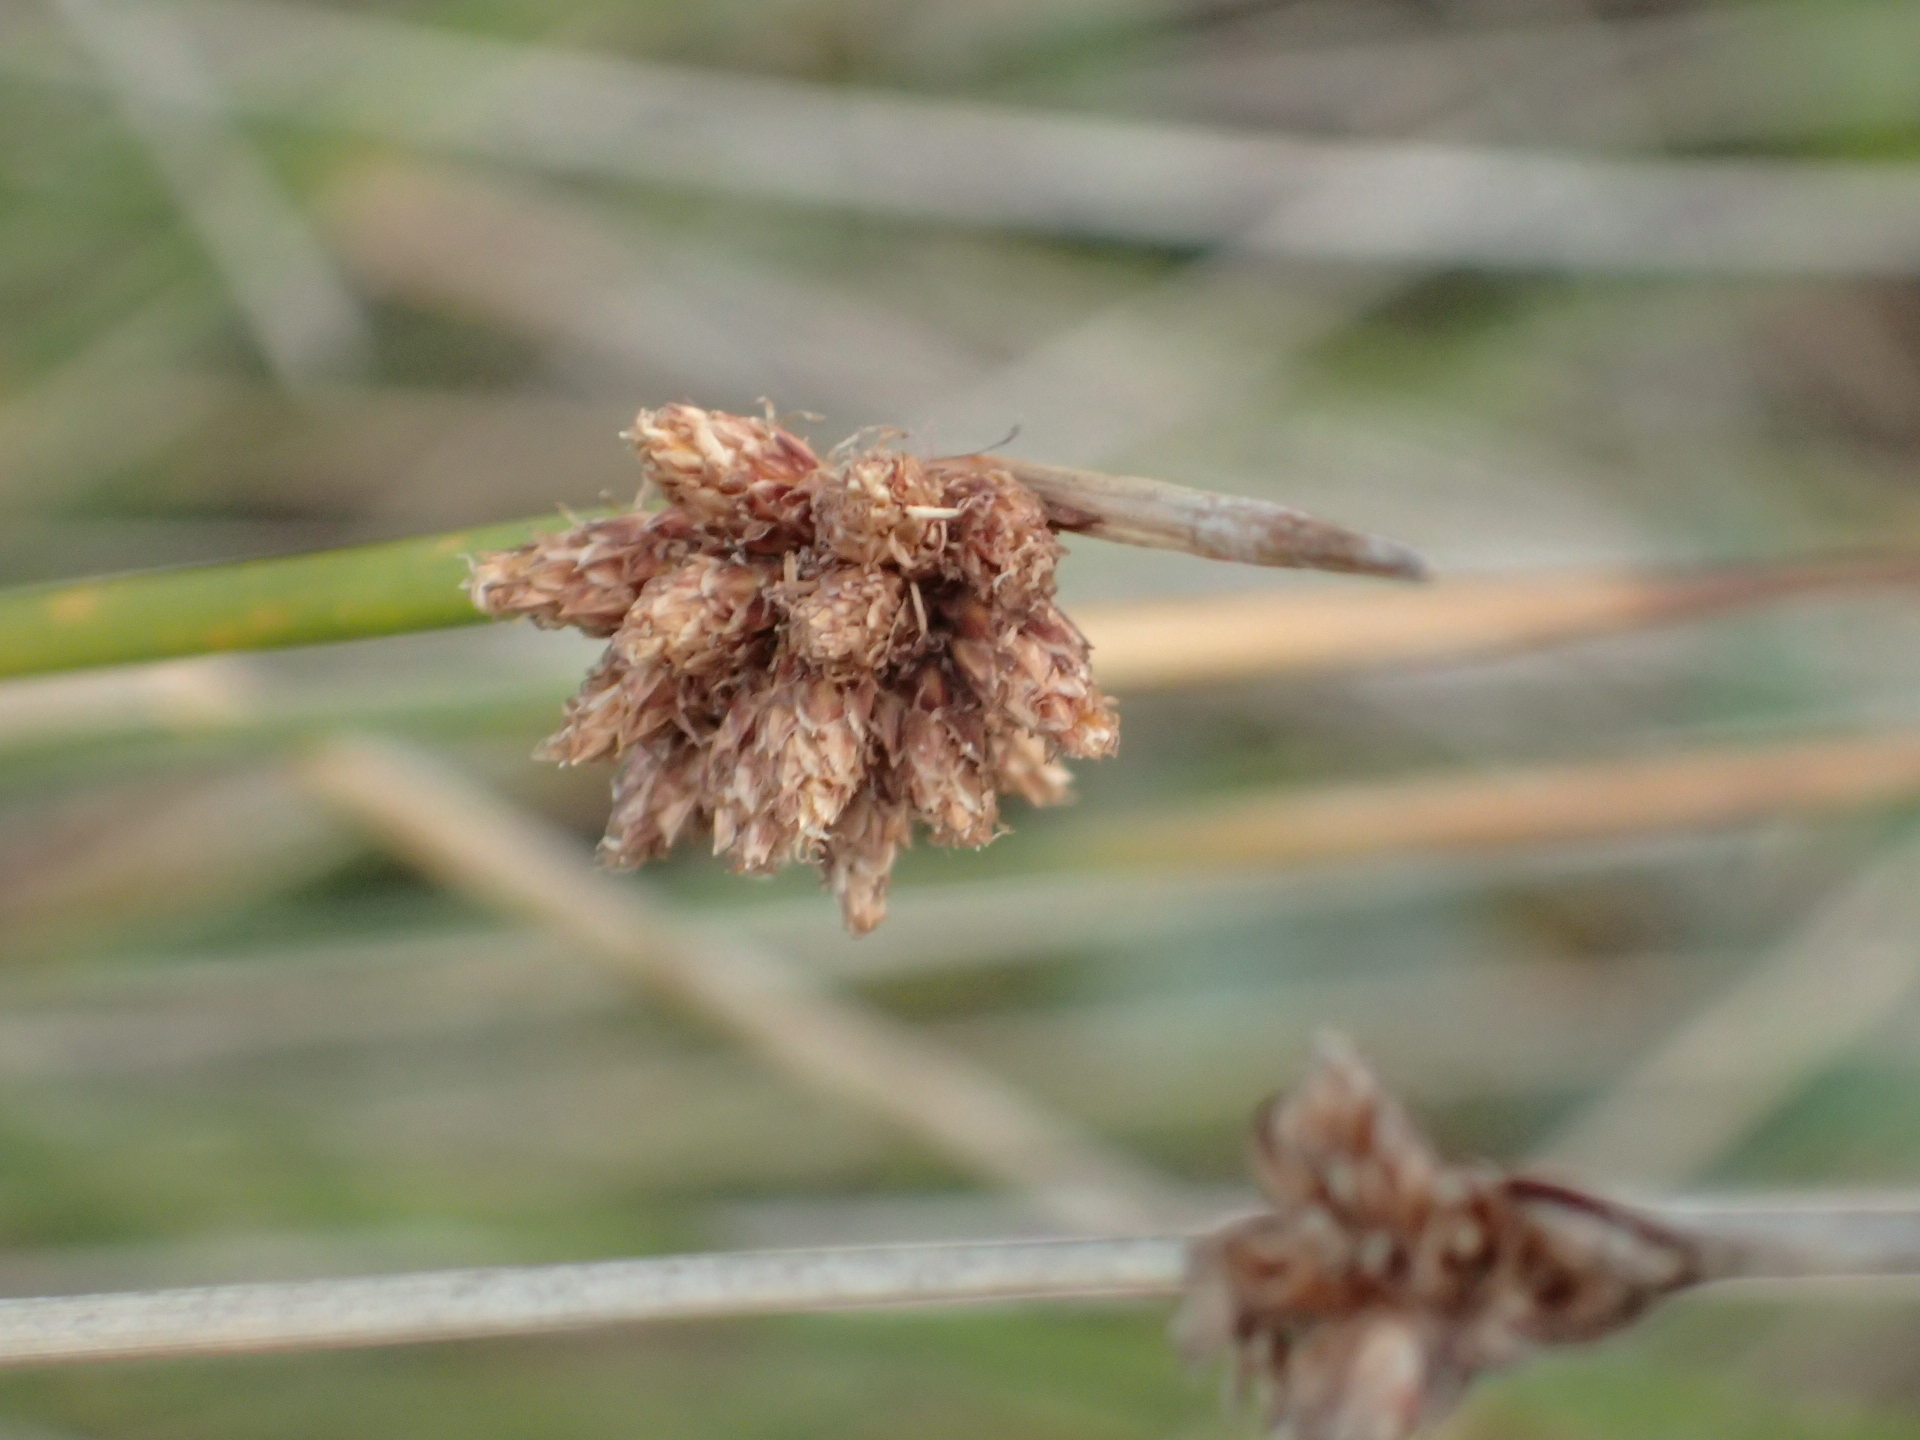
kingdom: Plantae
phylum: Tracheophyta
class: Liliopsida
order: Poales
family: Cyperaceae
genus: Ficinia
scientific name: Ficinia nodosa
